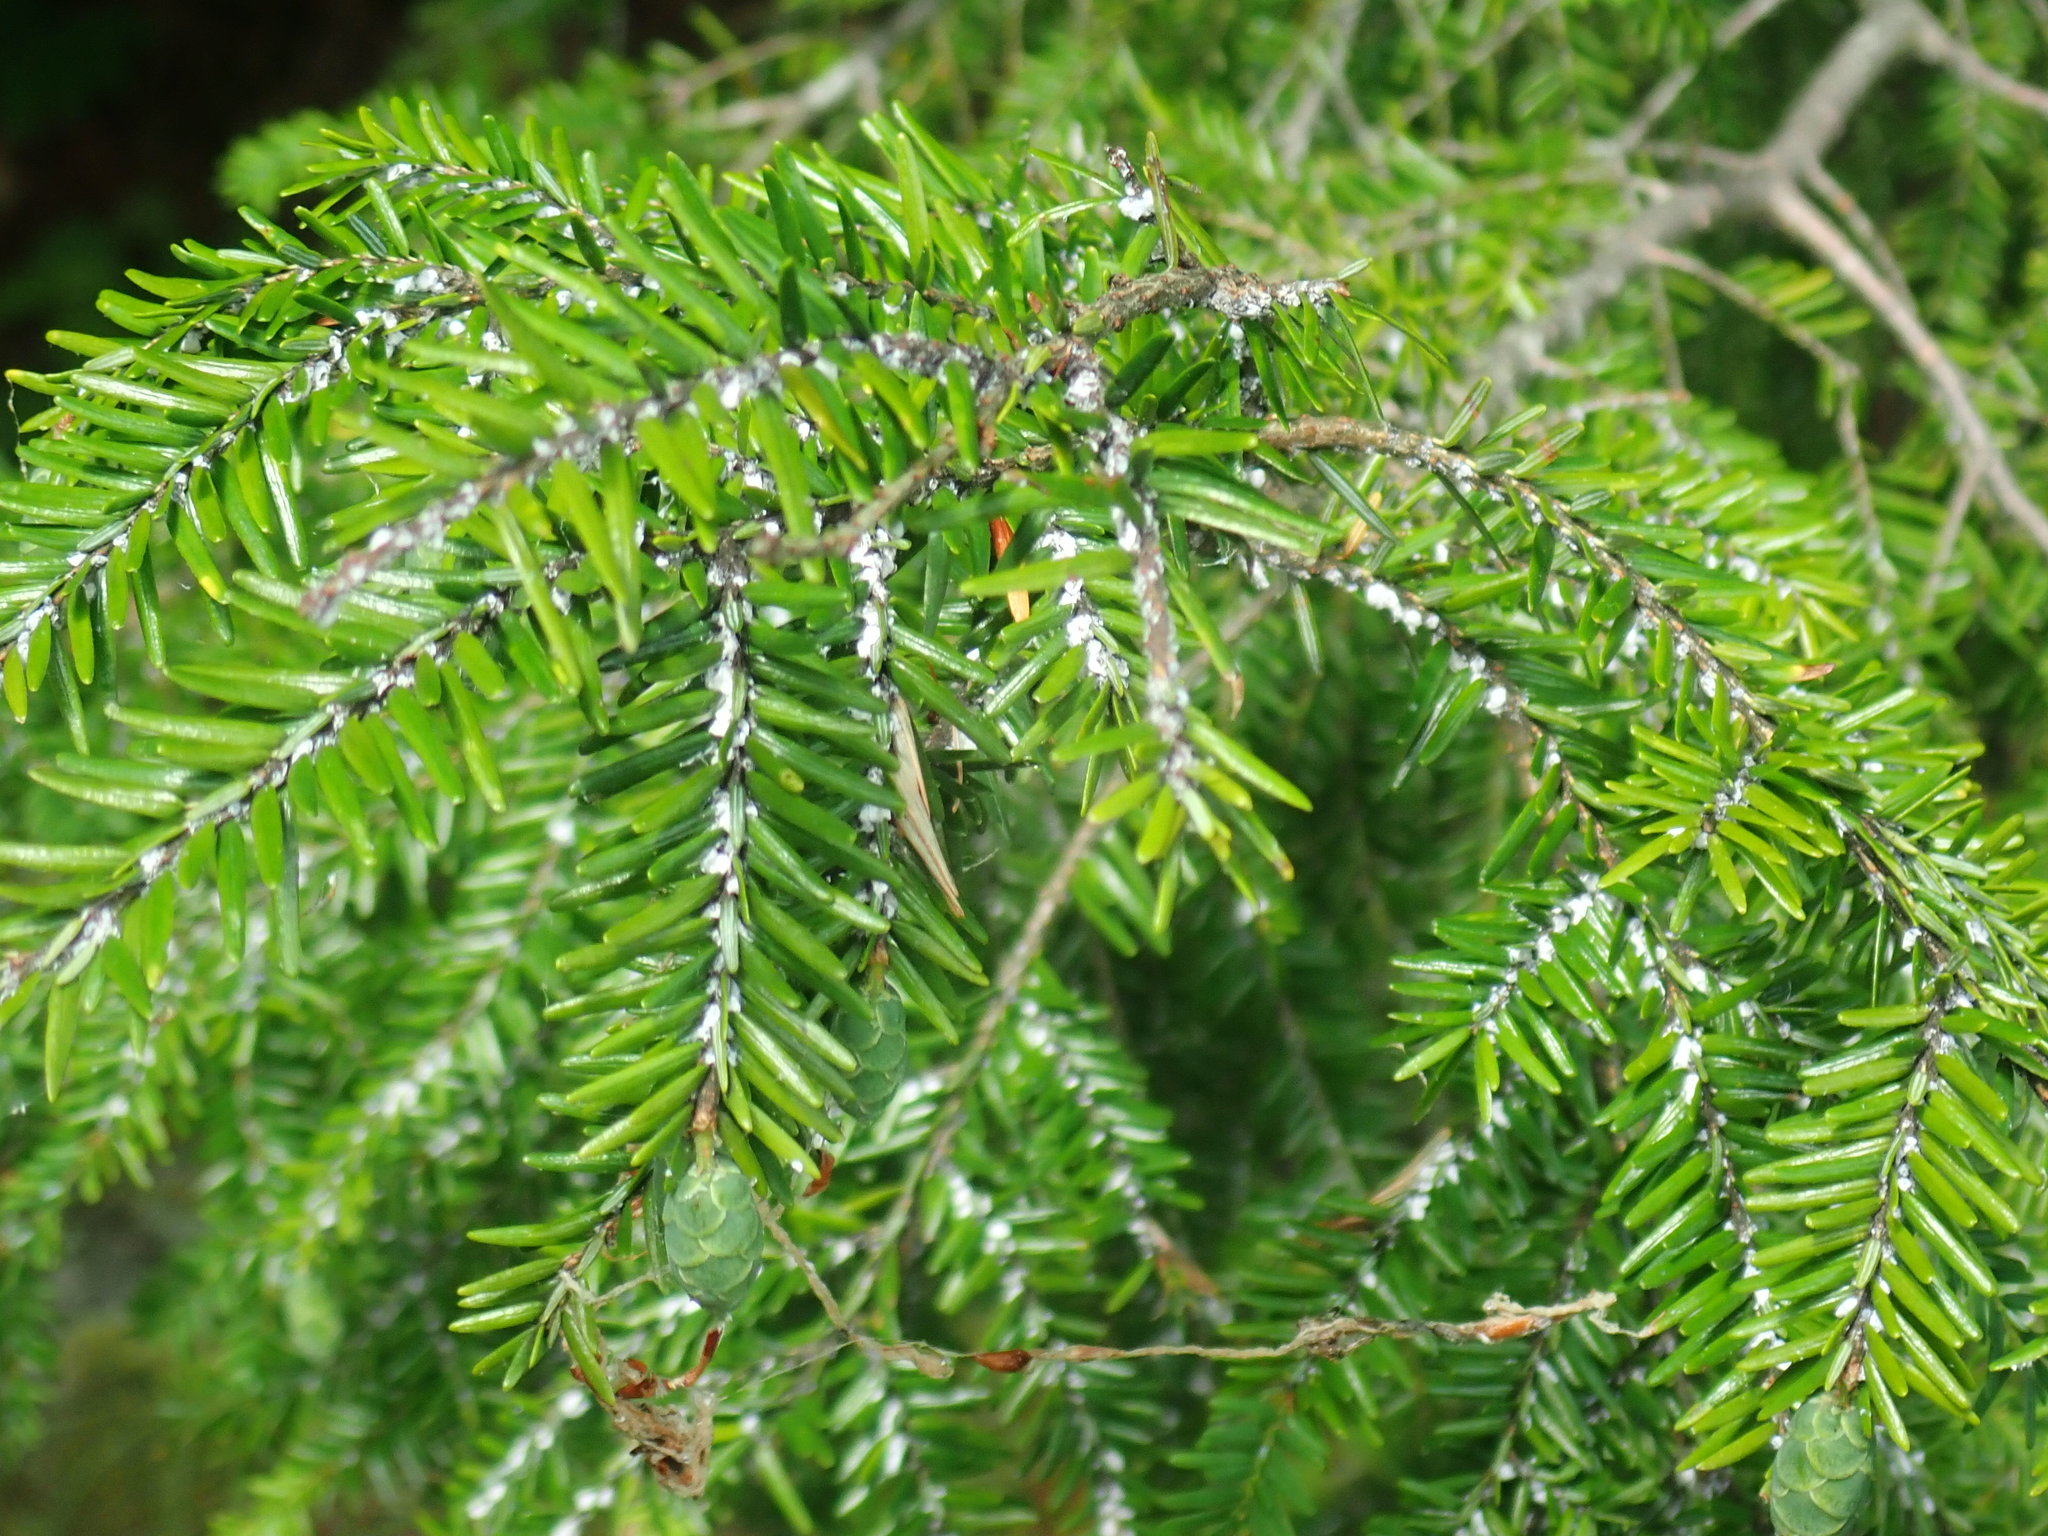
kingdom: Animalia
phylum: Arthropoda
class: Insecta
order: Hemiptera
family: Adelgidae
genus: Adelges
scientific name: Adelges tsugae
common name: Hemlock woolly adelgid
